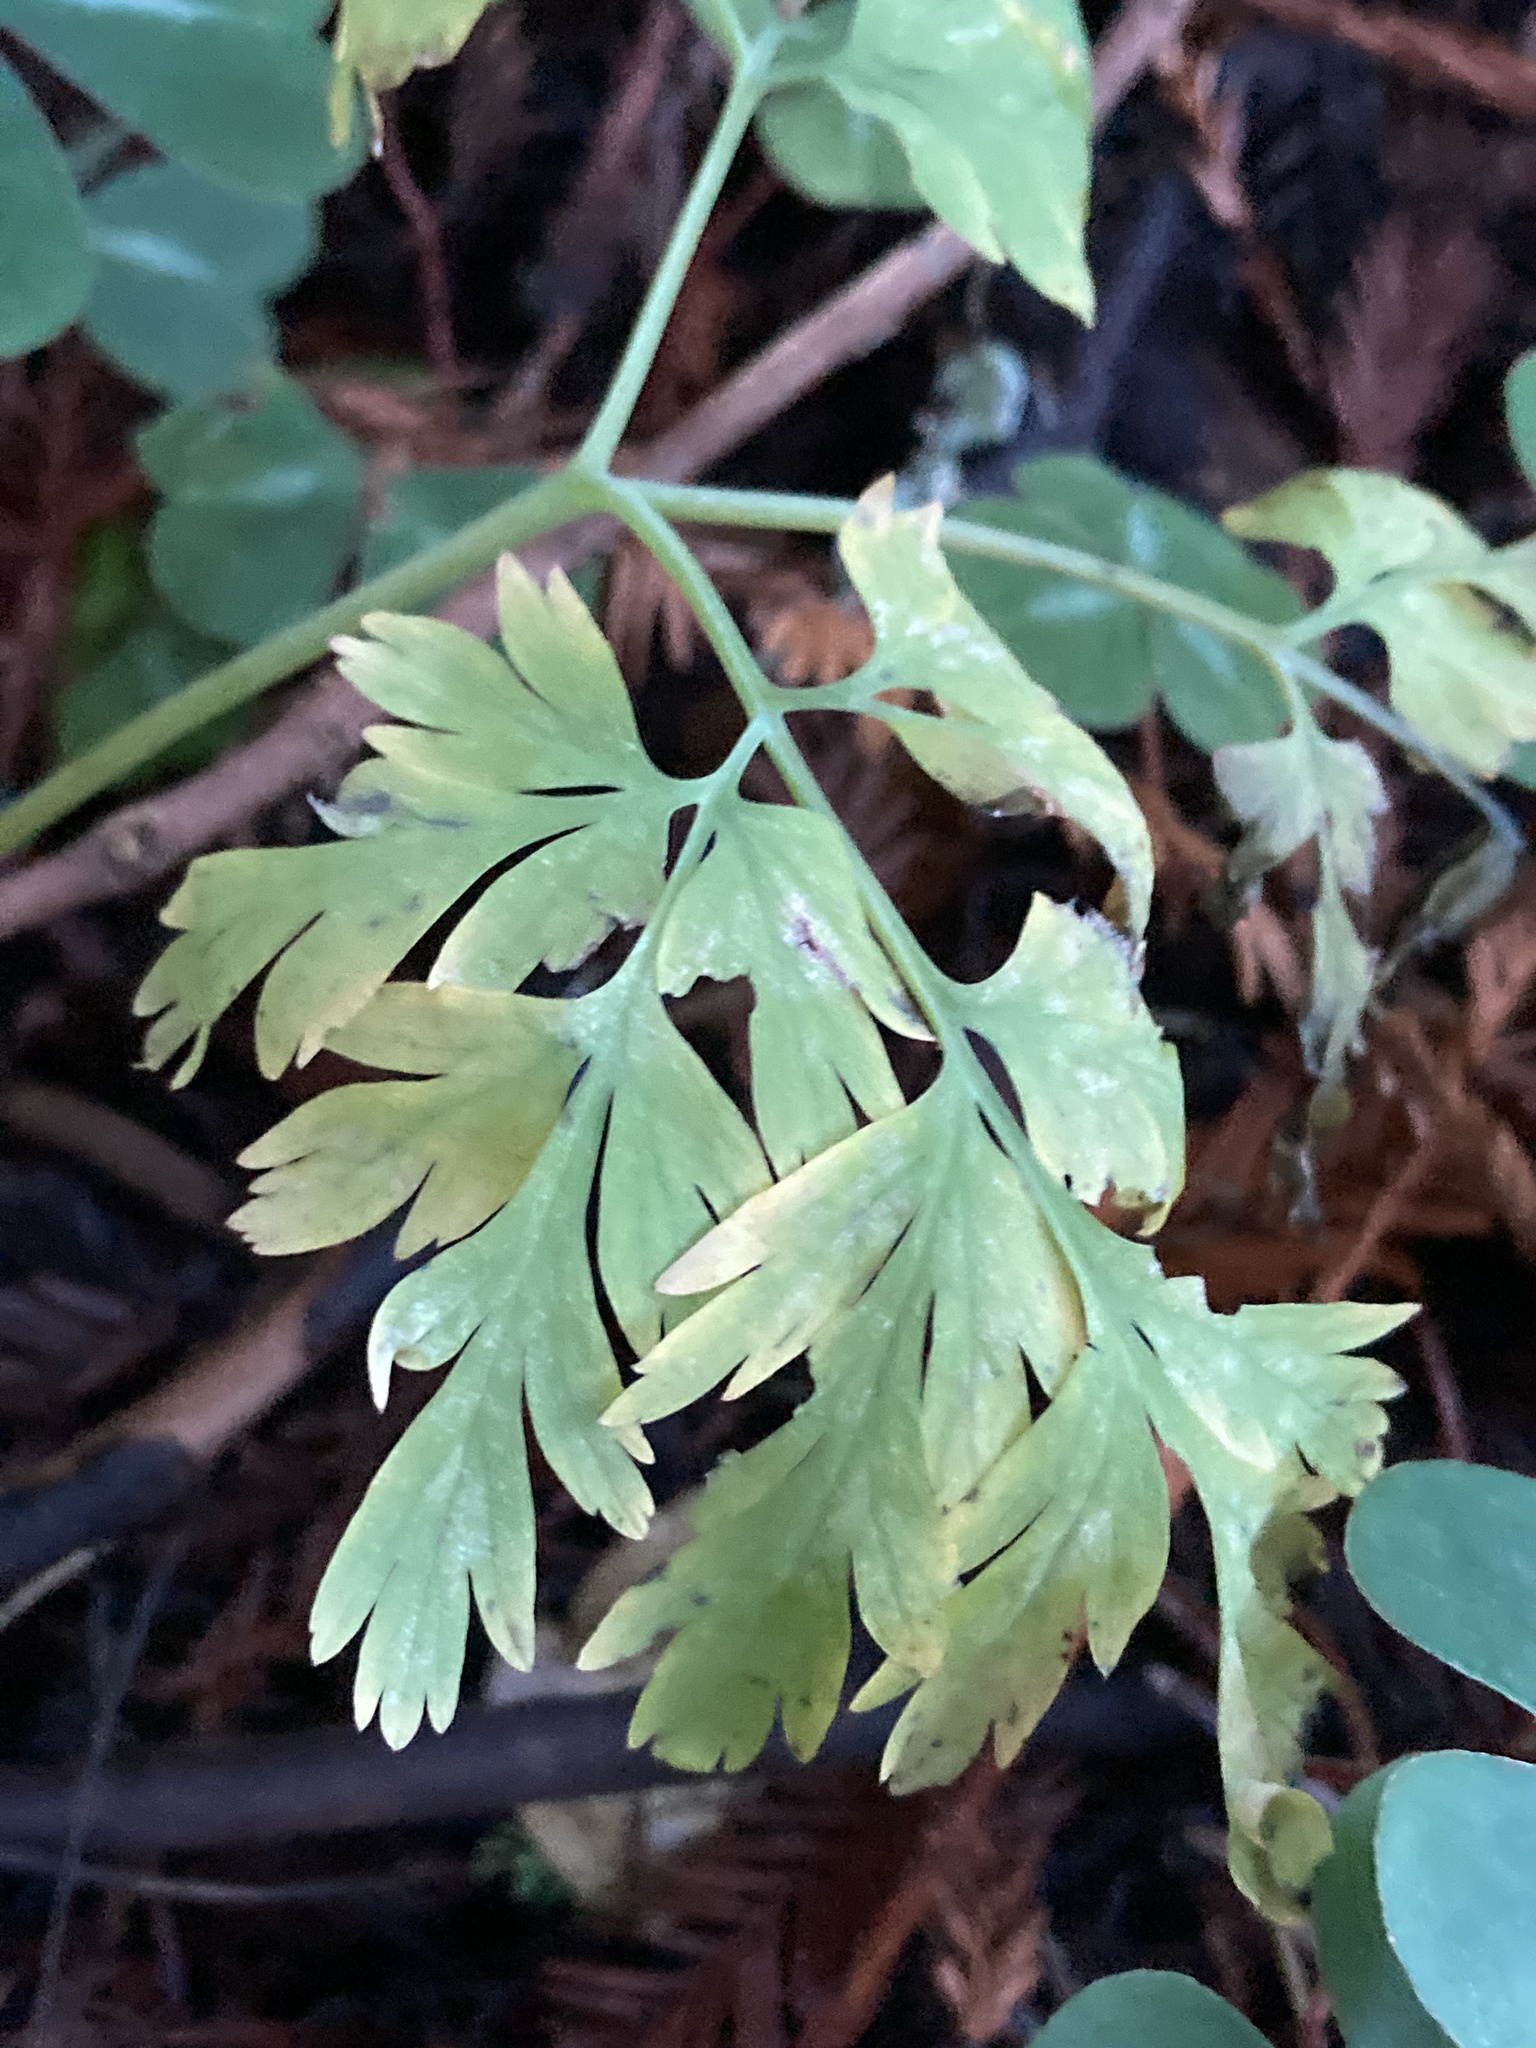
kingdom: Plantae
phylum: Tracheophyta
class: Magnoliopsida
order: Ranunculales
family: Papaveraceae
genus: Dicentra
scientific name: Dicentra formosa
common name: Bleeding-heart
